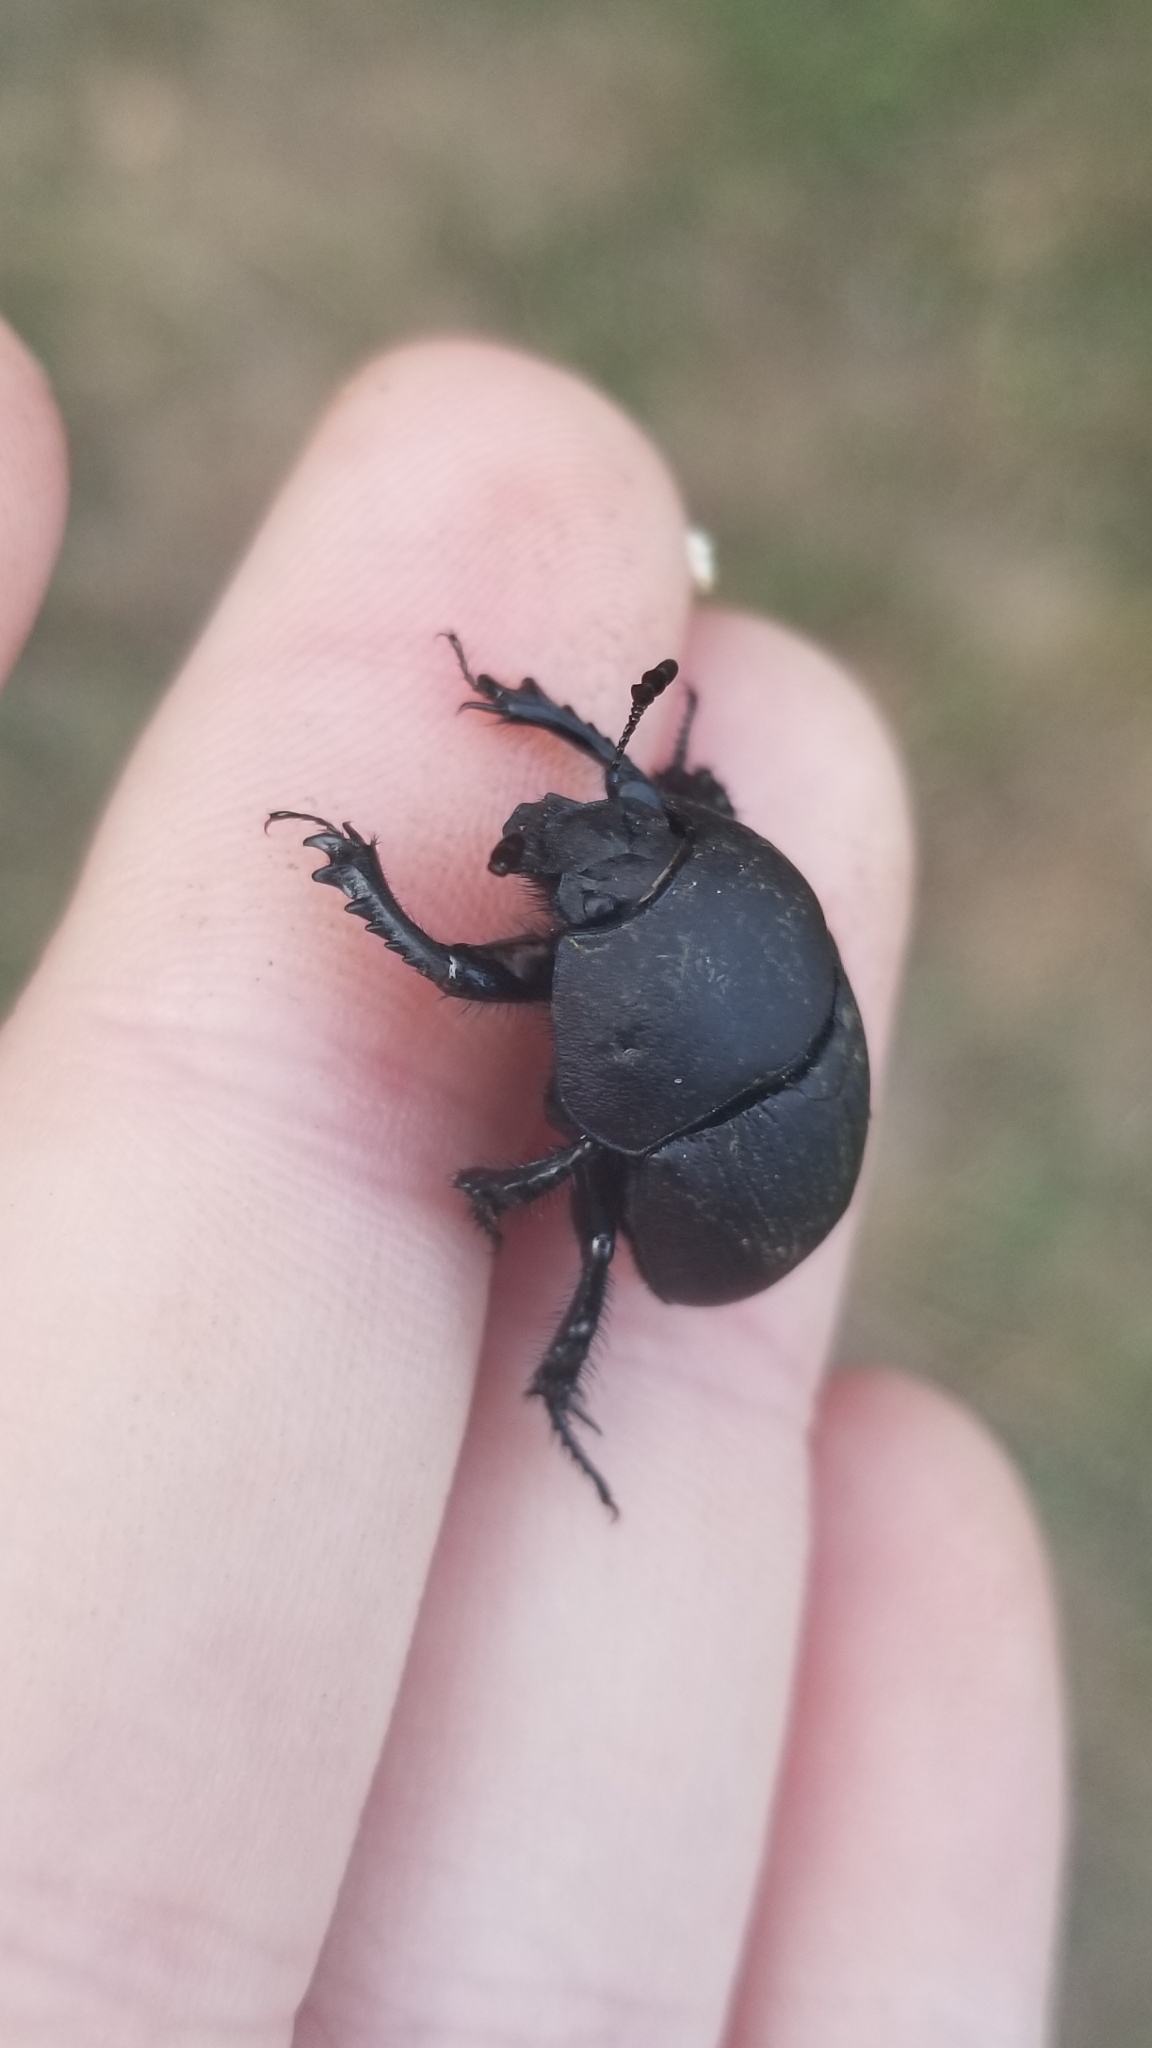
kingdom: Animalia
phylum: Arthropoda
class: Insecta
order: Coleoptera
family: Geotrupidae
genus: Geohowdenius
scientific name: Geohowdenius opacus
